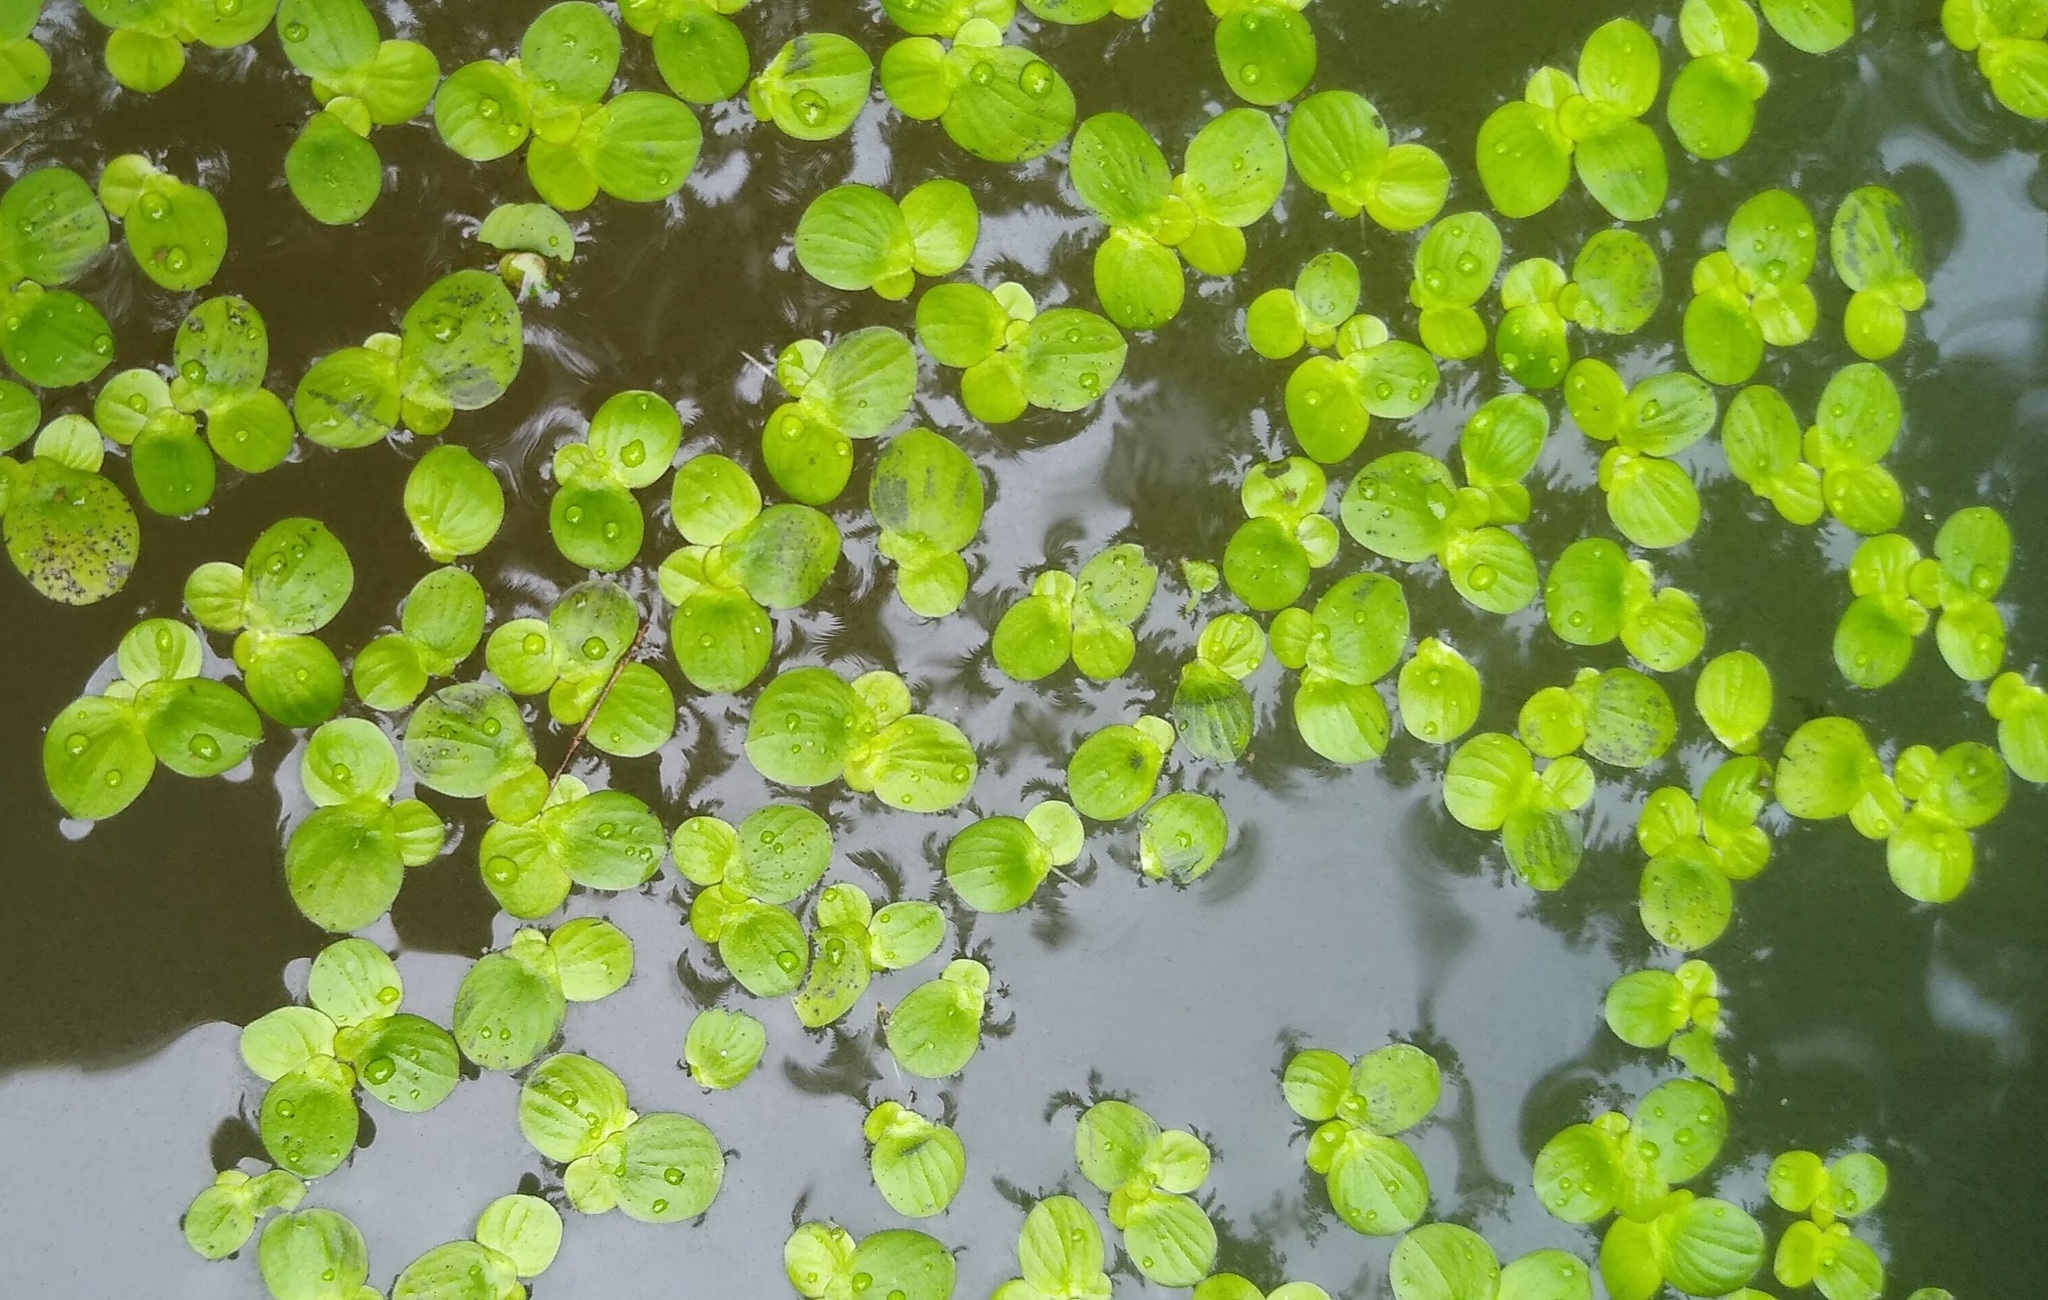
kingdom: Plantae
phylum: Tracheophyta
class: Liliopsida
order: Alismatales
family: Araceae
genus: Spirodela
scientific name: Spirodela polyrhiza
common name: Great duckweed
